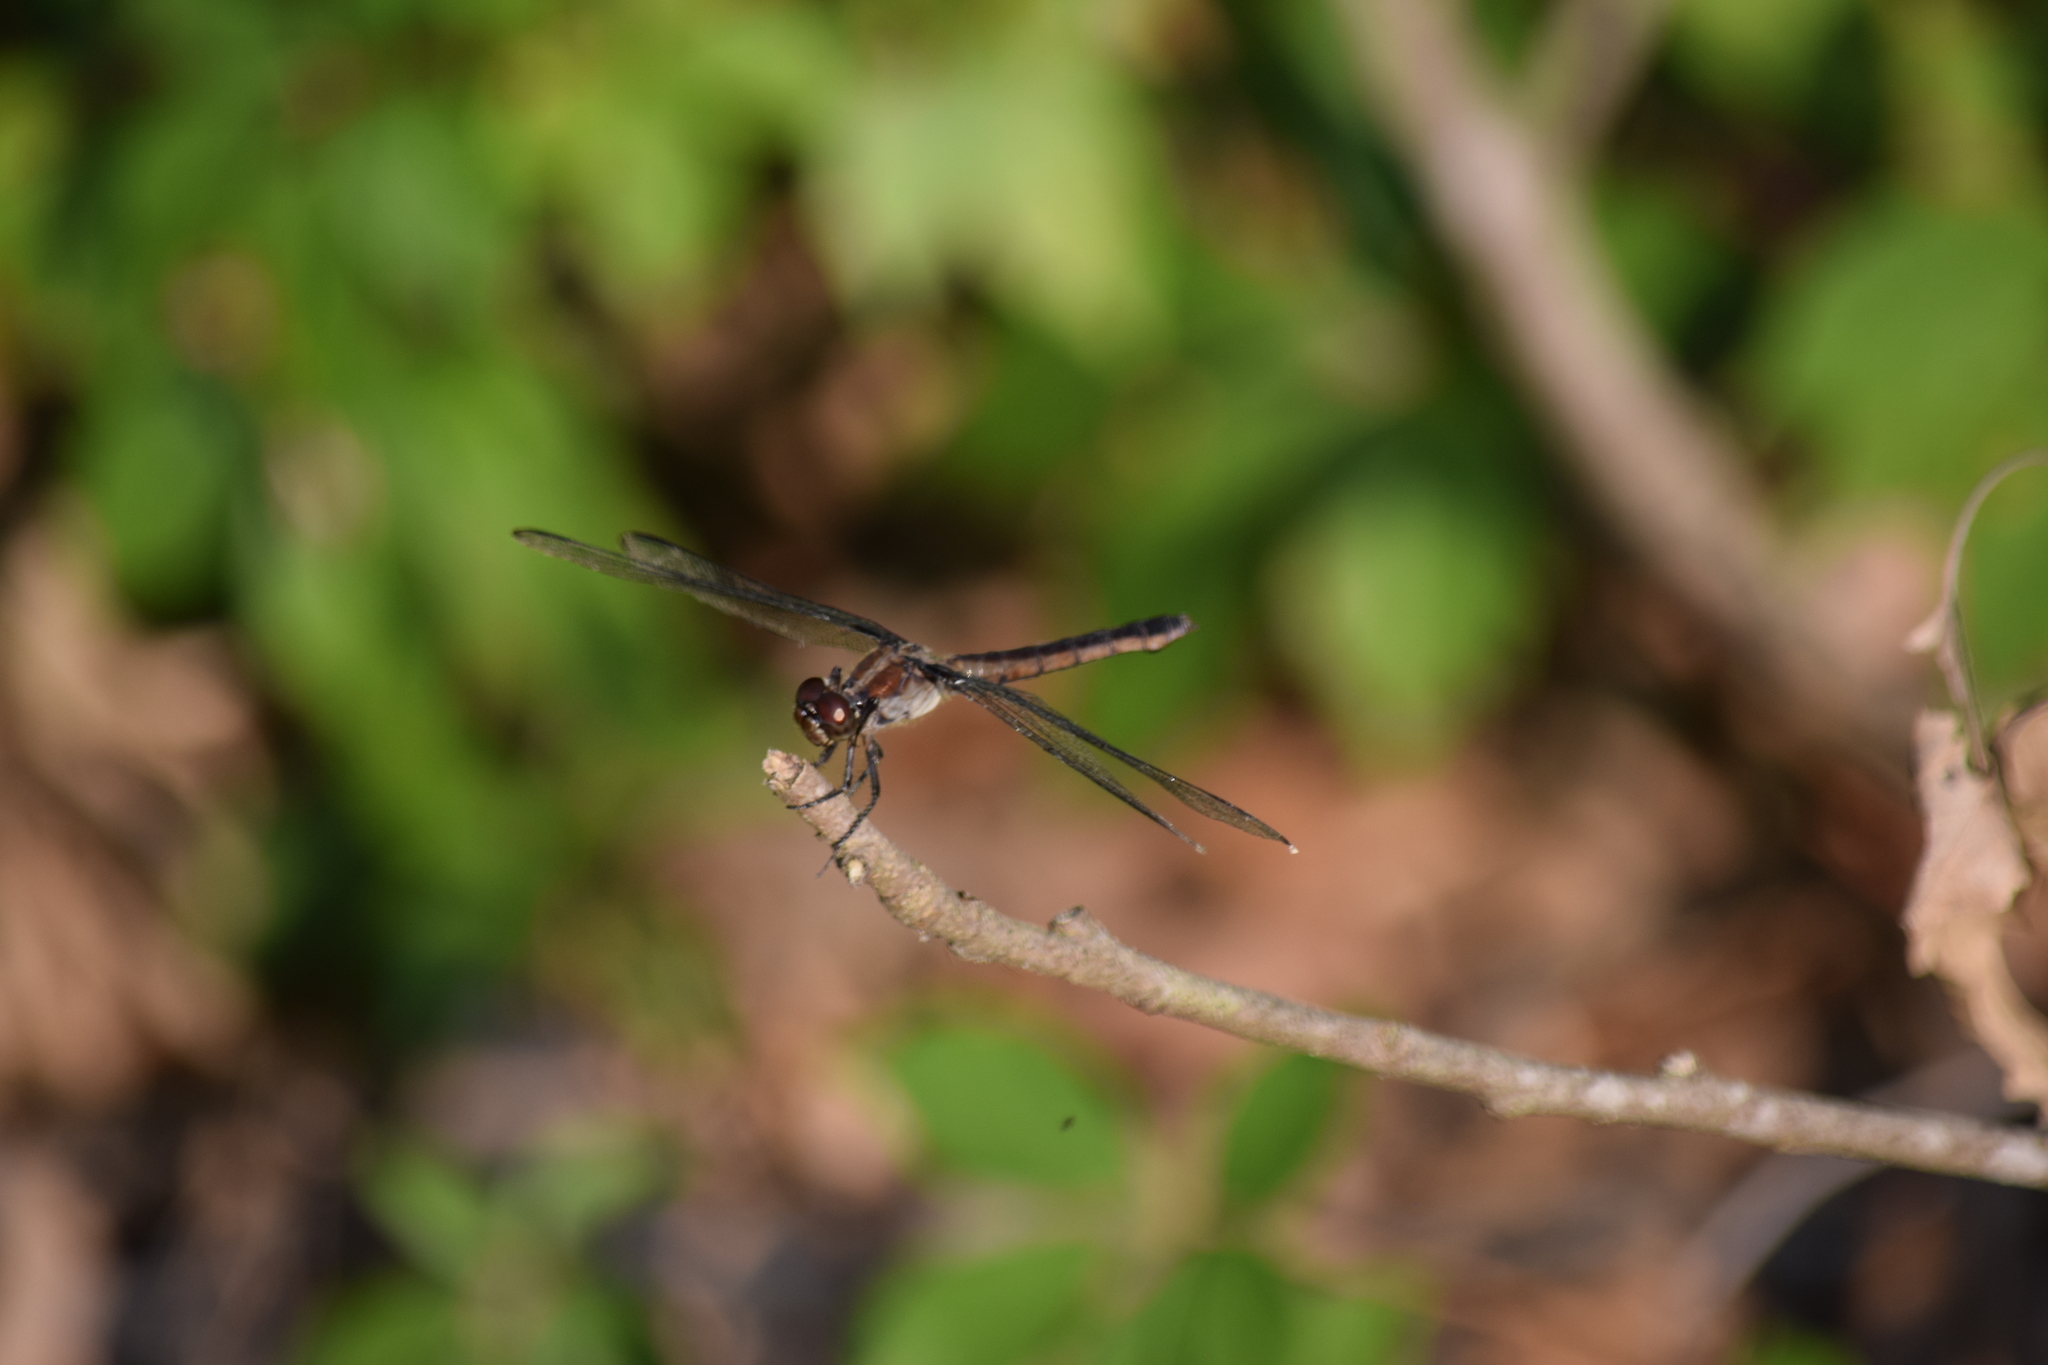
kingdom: Animalia
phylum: Arthropoda
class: Insecta
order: Odonata
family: Libellulidae
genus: Libellula
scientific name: Libellula incesta
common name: Slaty skimmer
